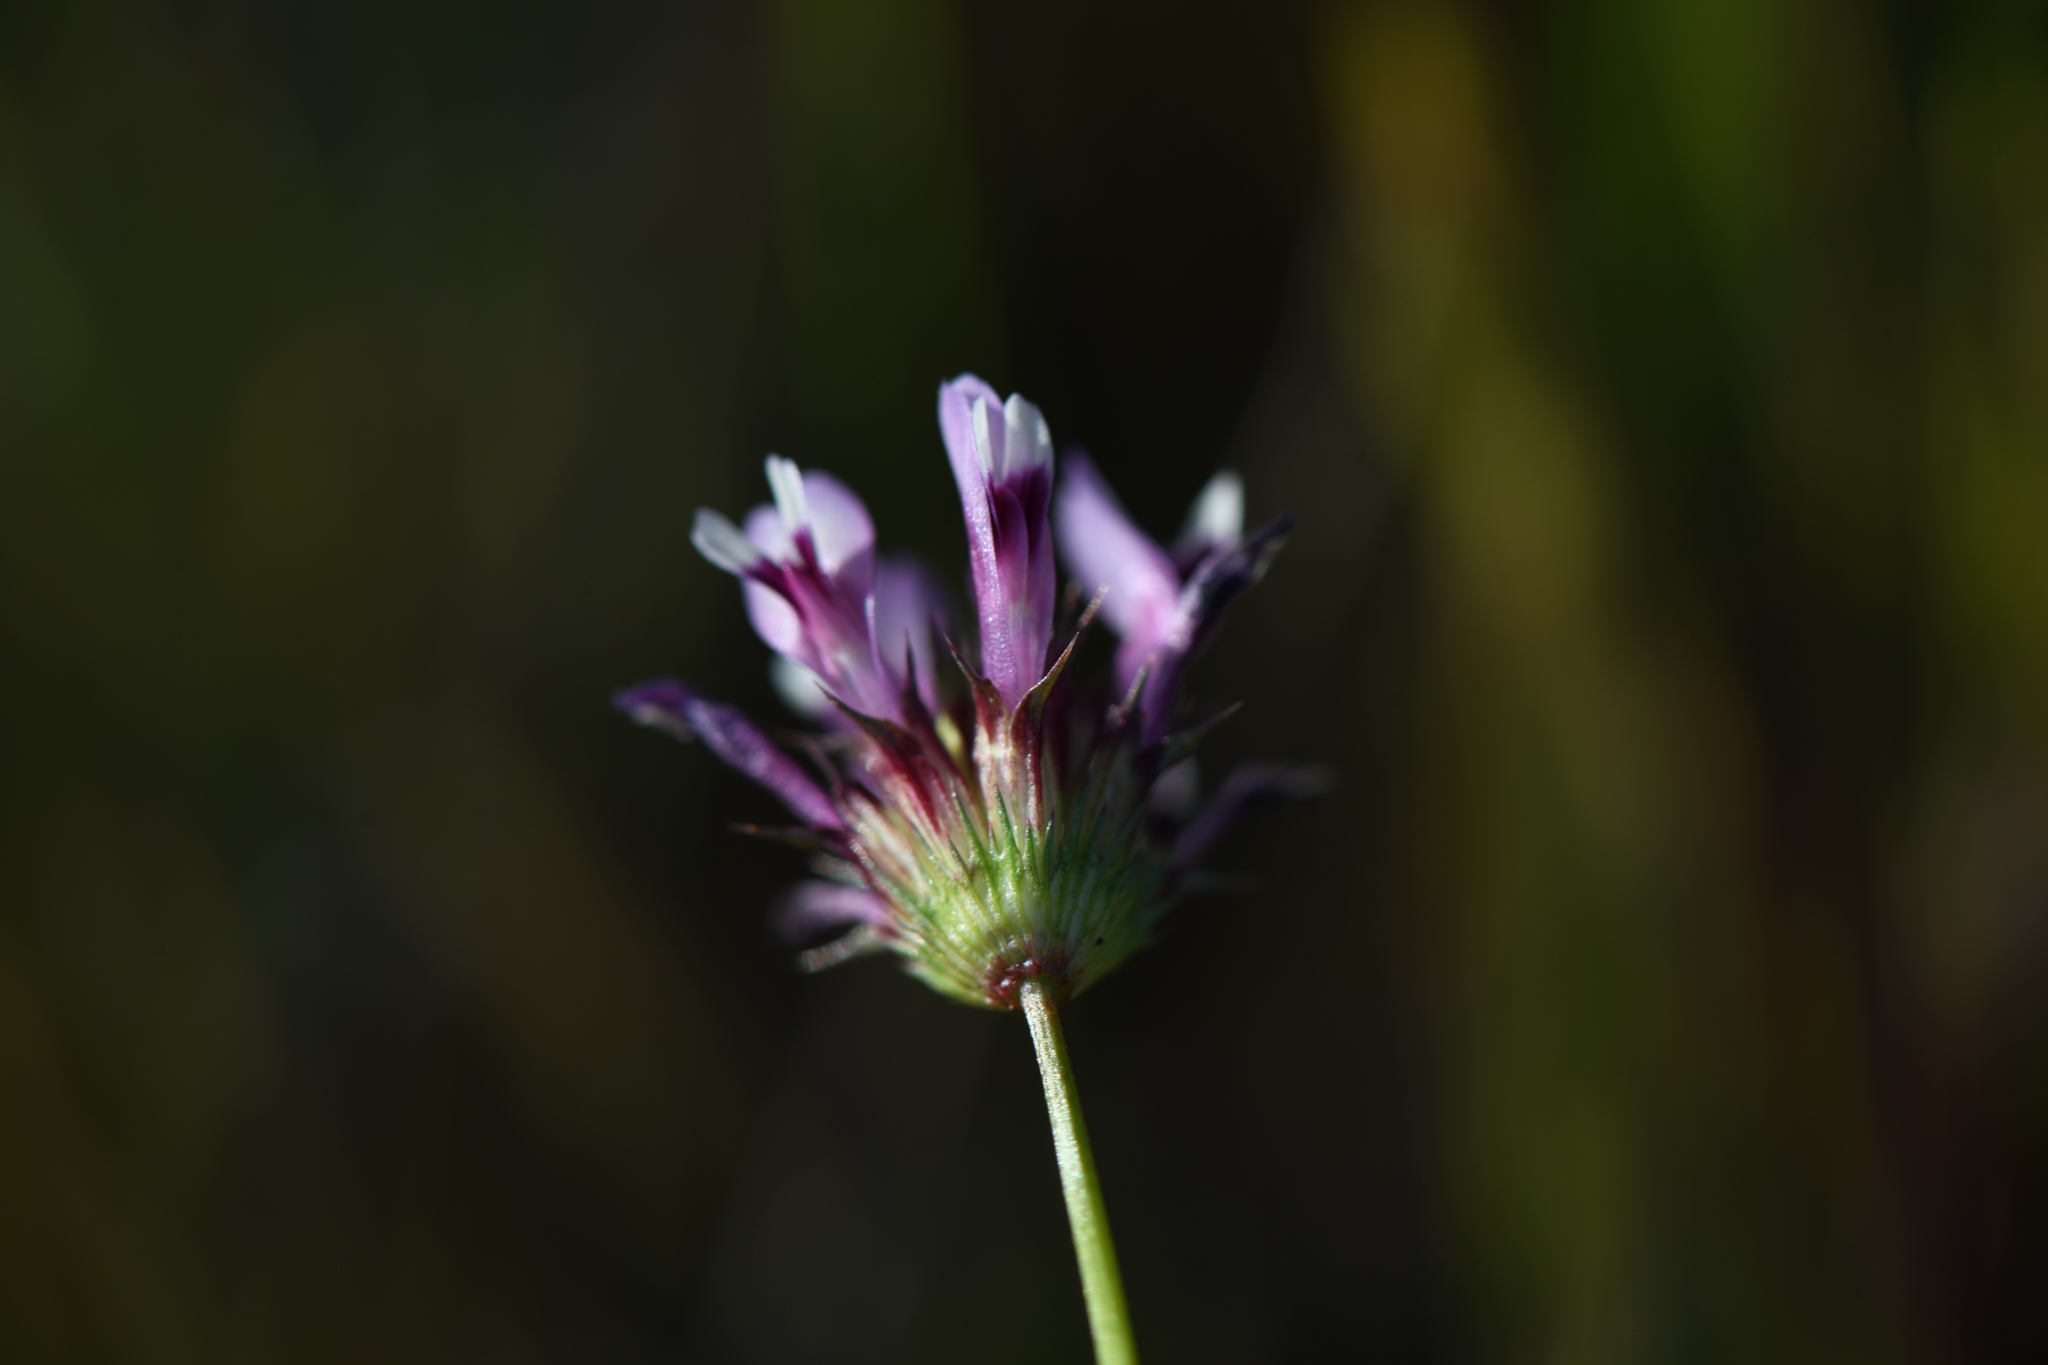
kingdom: Plantae
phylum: Tracheophyta
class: Magnoliopsida
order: Fabales
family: Fabaceae
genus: Trifolium
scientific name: Trifolium willdenovii
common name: Tomcat clover
